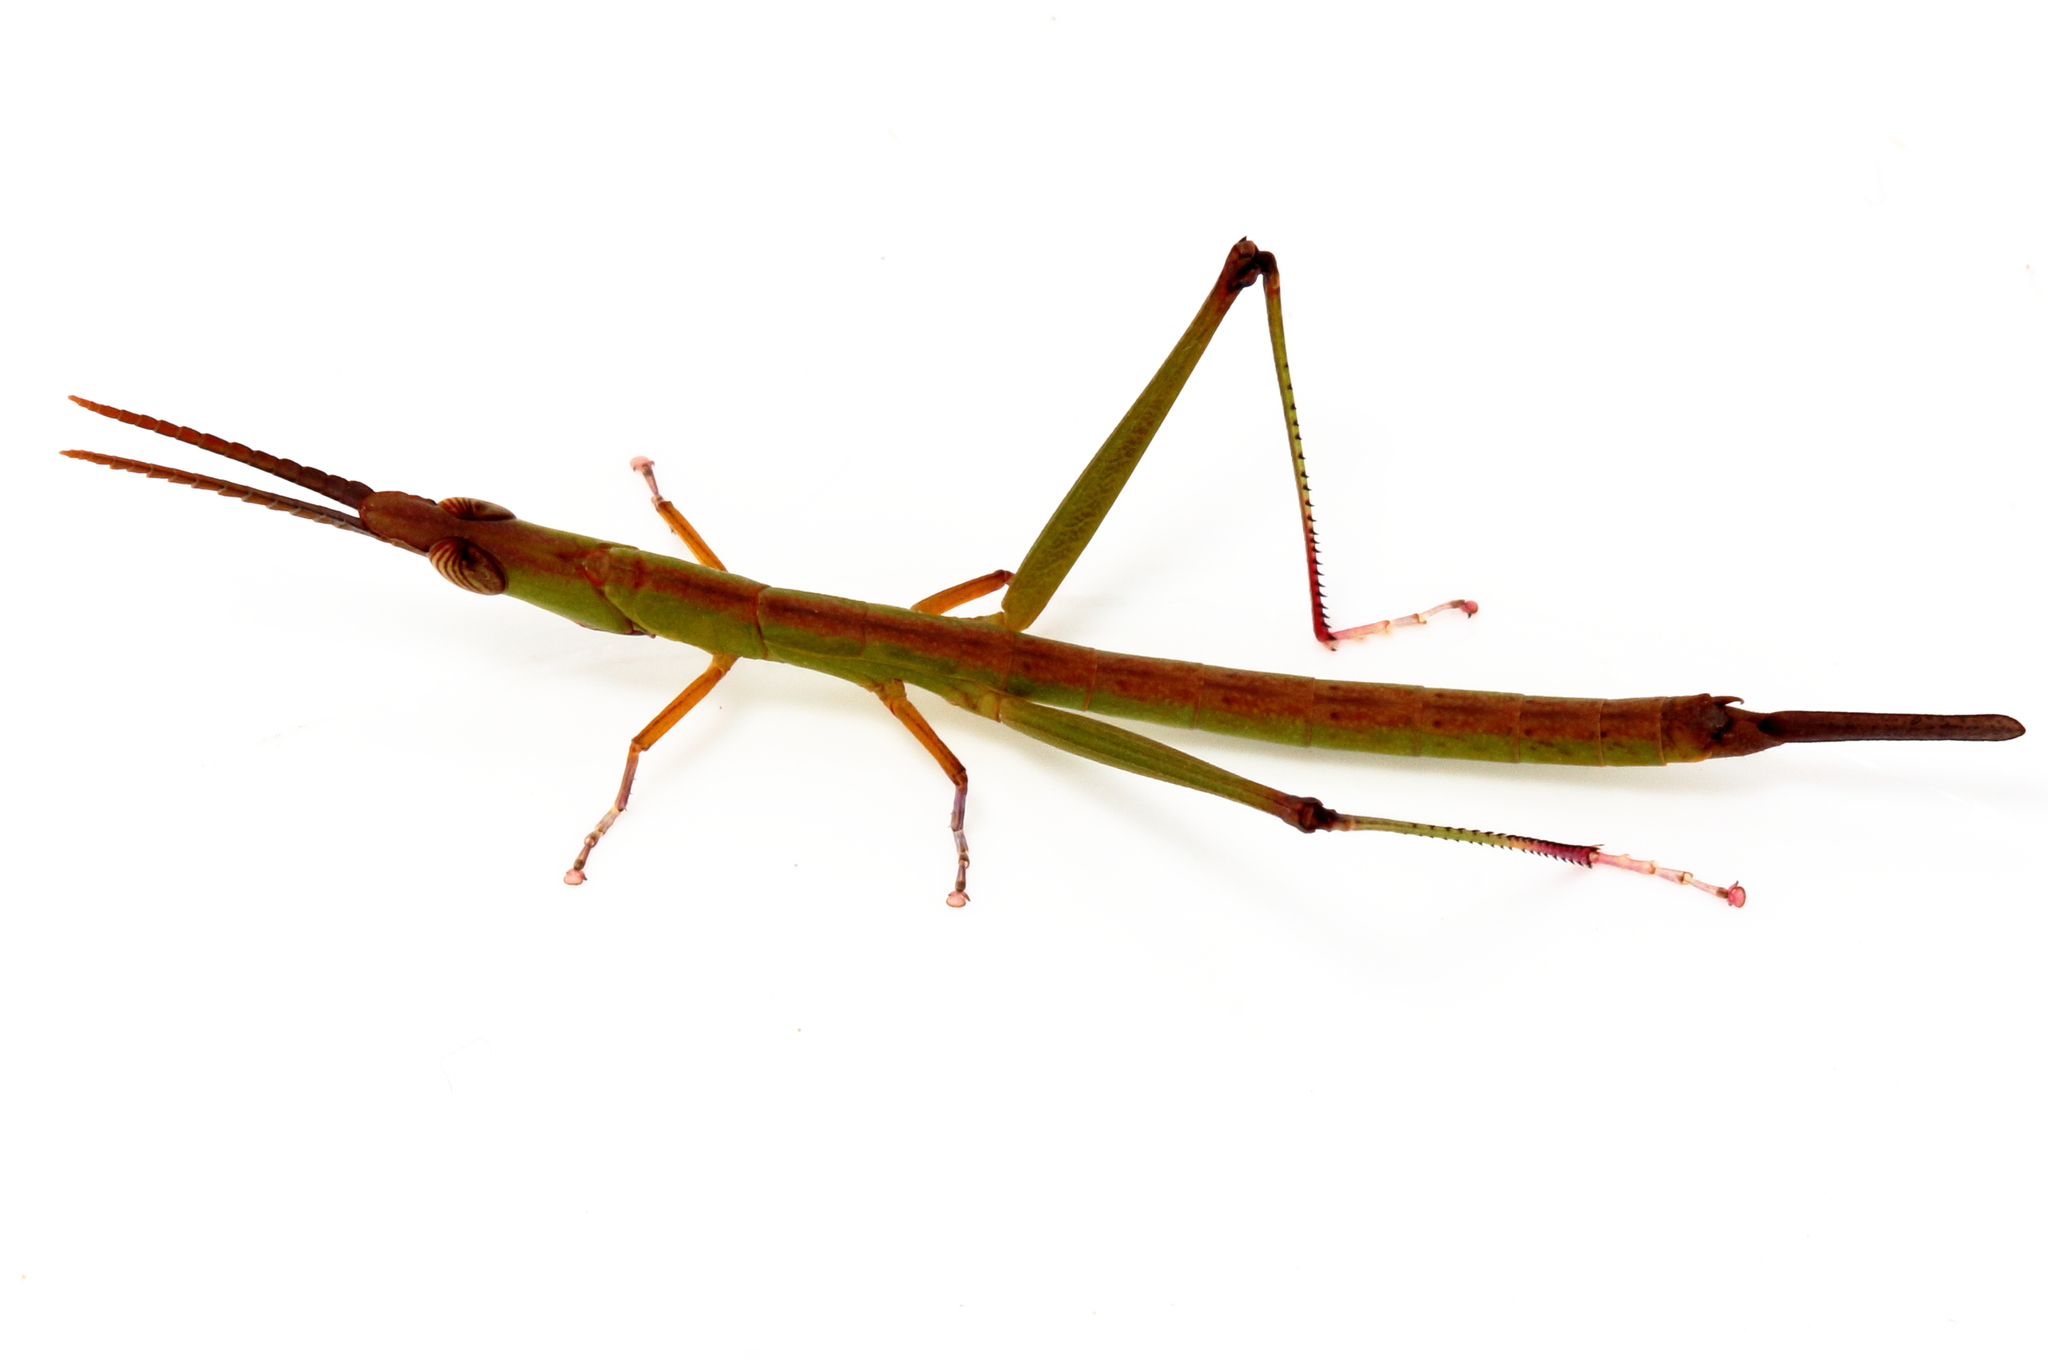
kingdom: Animalia
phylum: Arthropoda
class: Insecta
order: Orthoptera
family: Morabidae
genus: Warramaba
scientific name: Warramaba grandis
